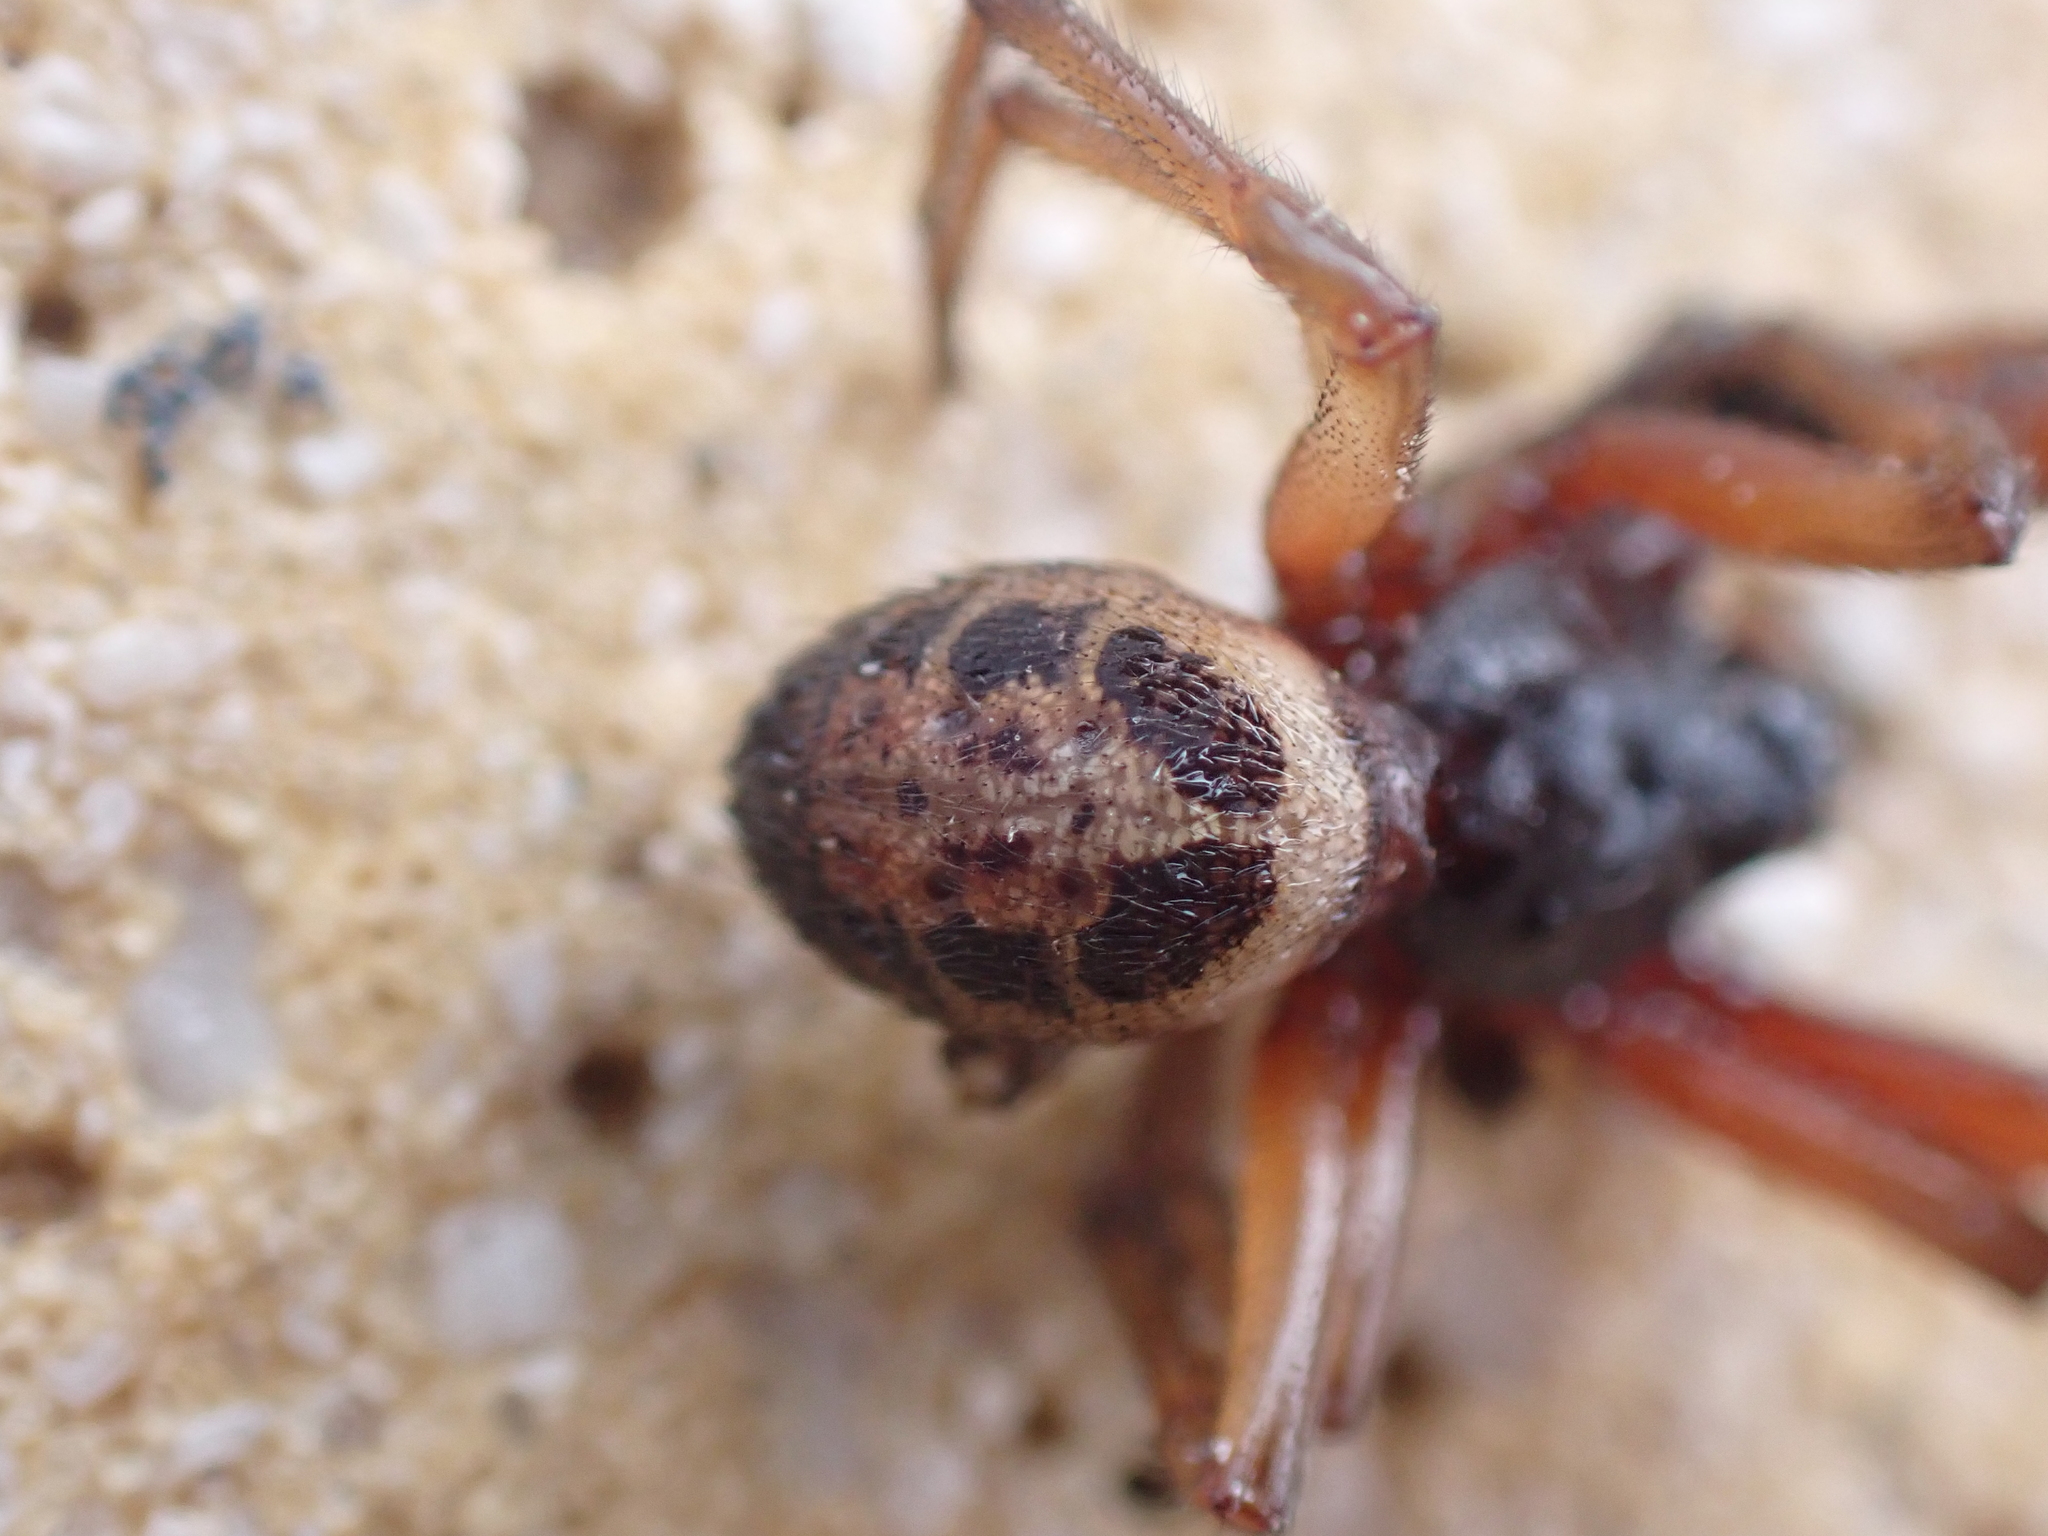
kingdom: Animalia
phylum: Arthropoda
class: Arachnida
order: Araneae
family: Theridiidae
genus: Steatoda
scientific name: Steatoda nobilis
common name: Cobweb weaver
